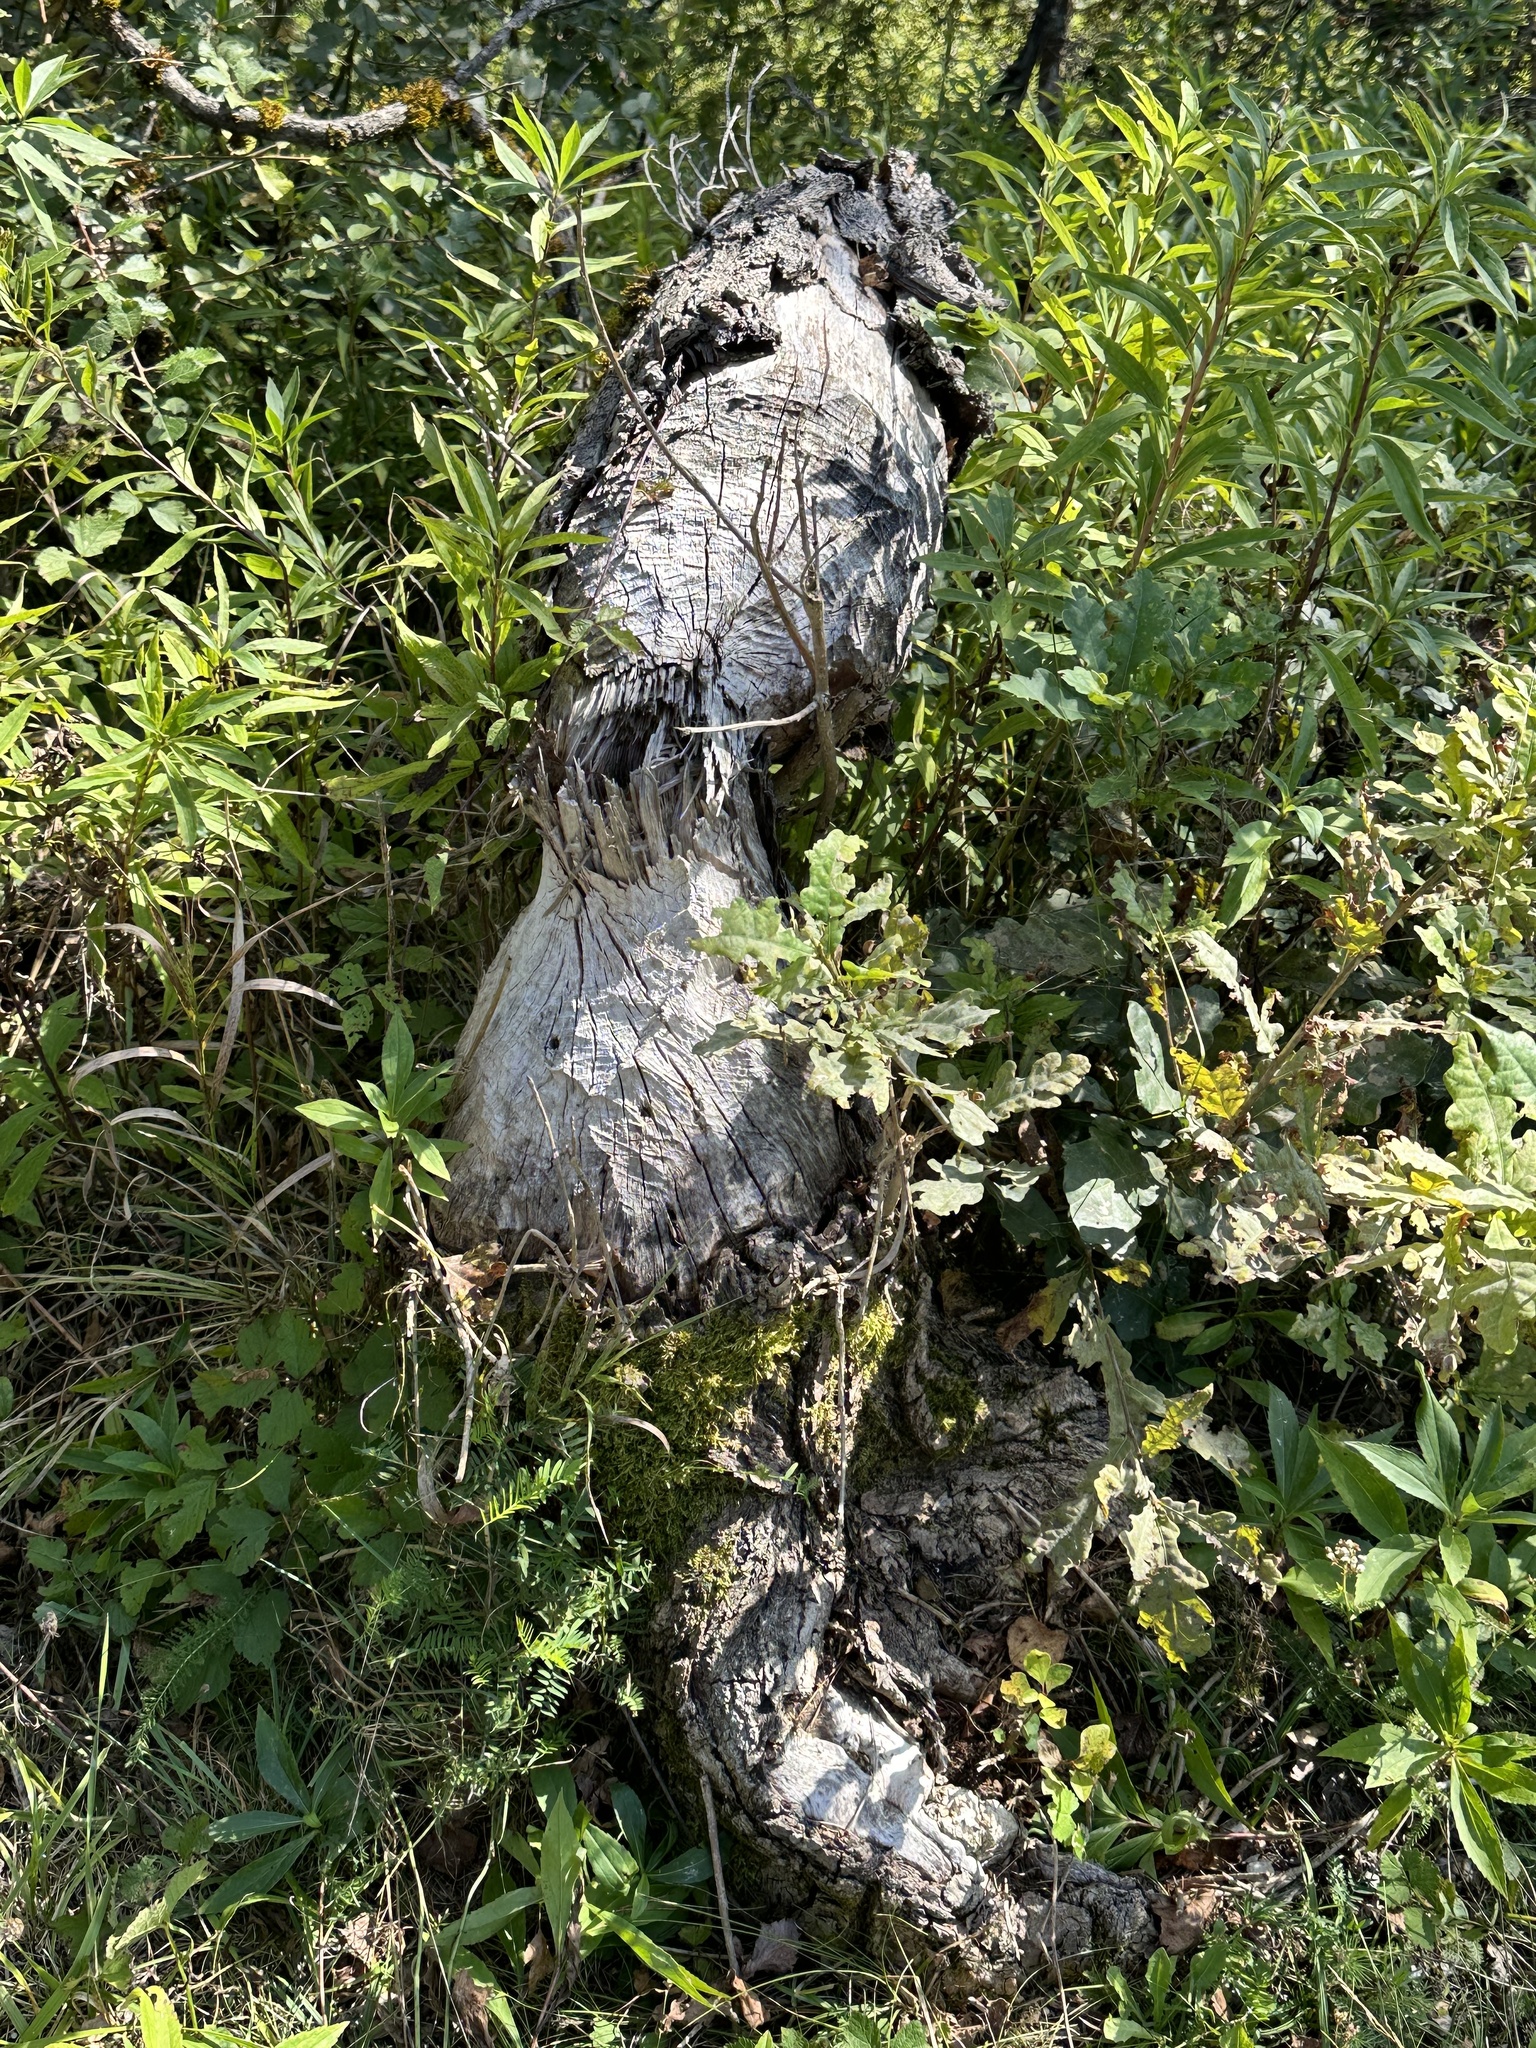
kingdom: Animalia
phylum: Chordata
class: Mammalia
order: Rodentia
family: Castoridae
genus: Castor
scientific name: Castor fiber
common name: Eurasian beaver
